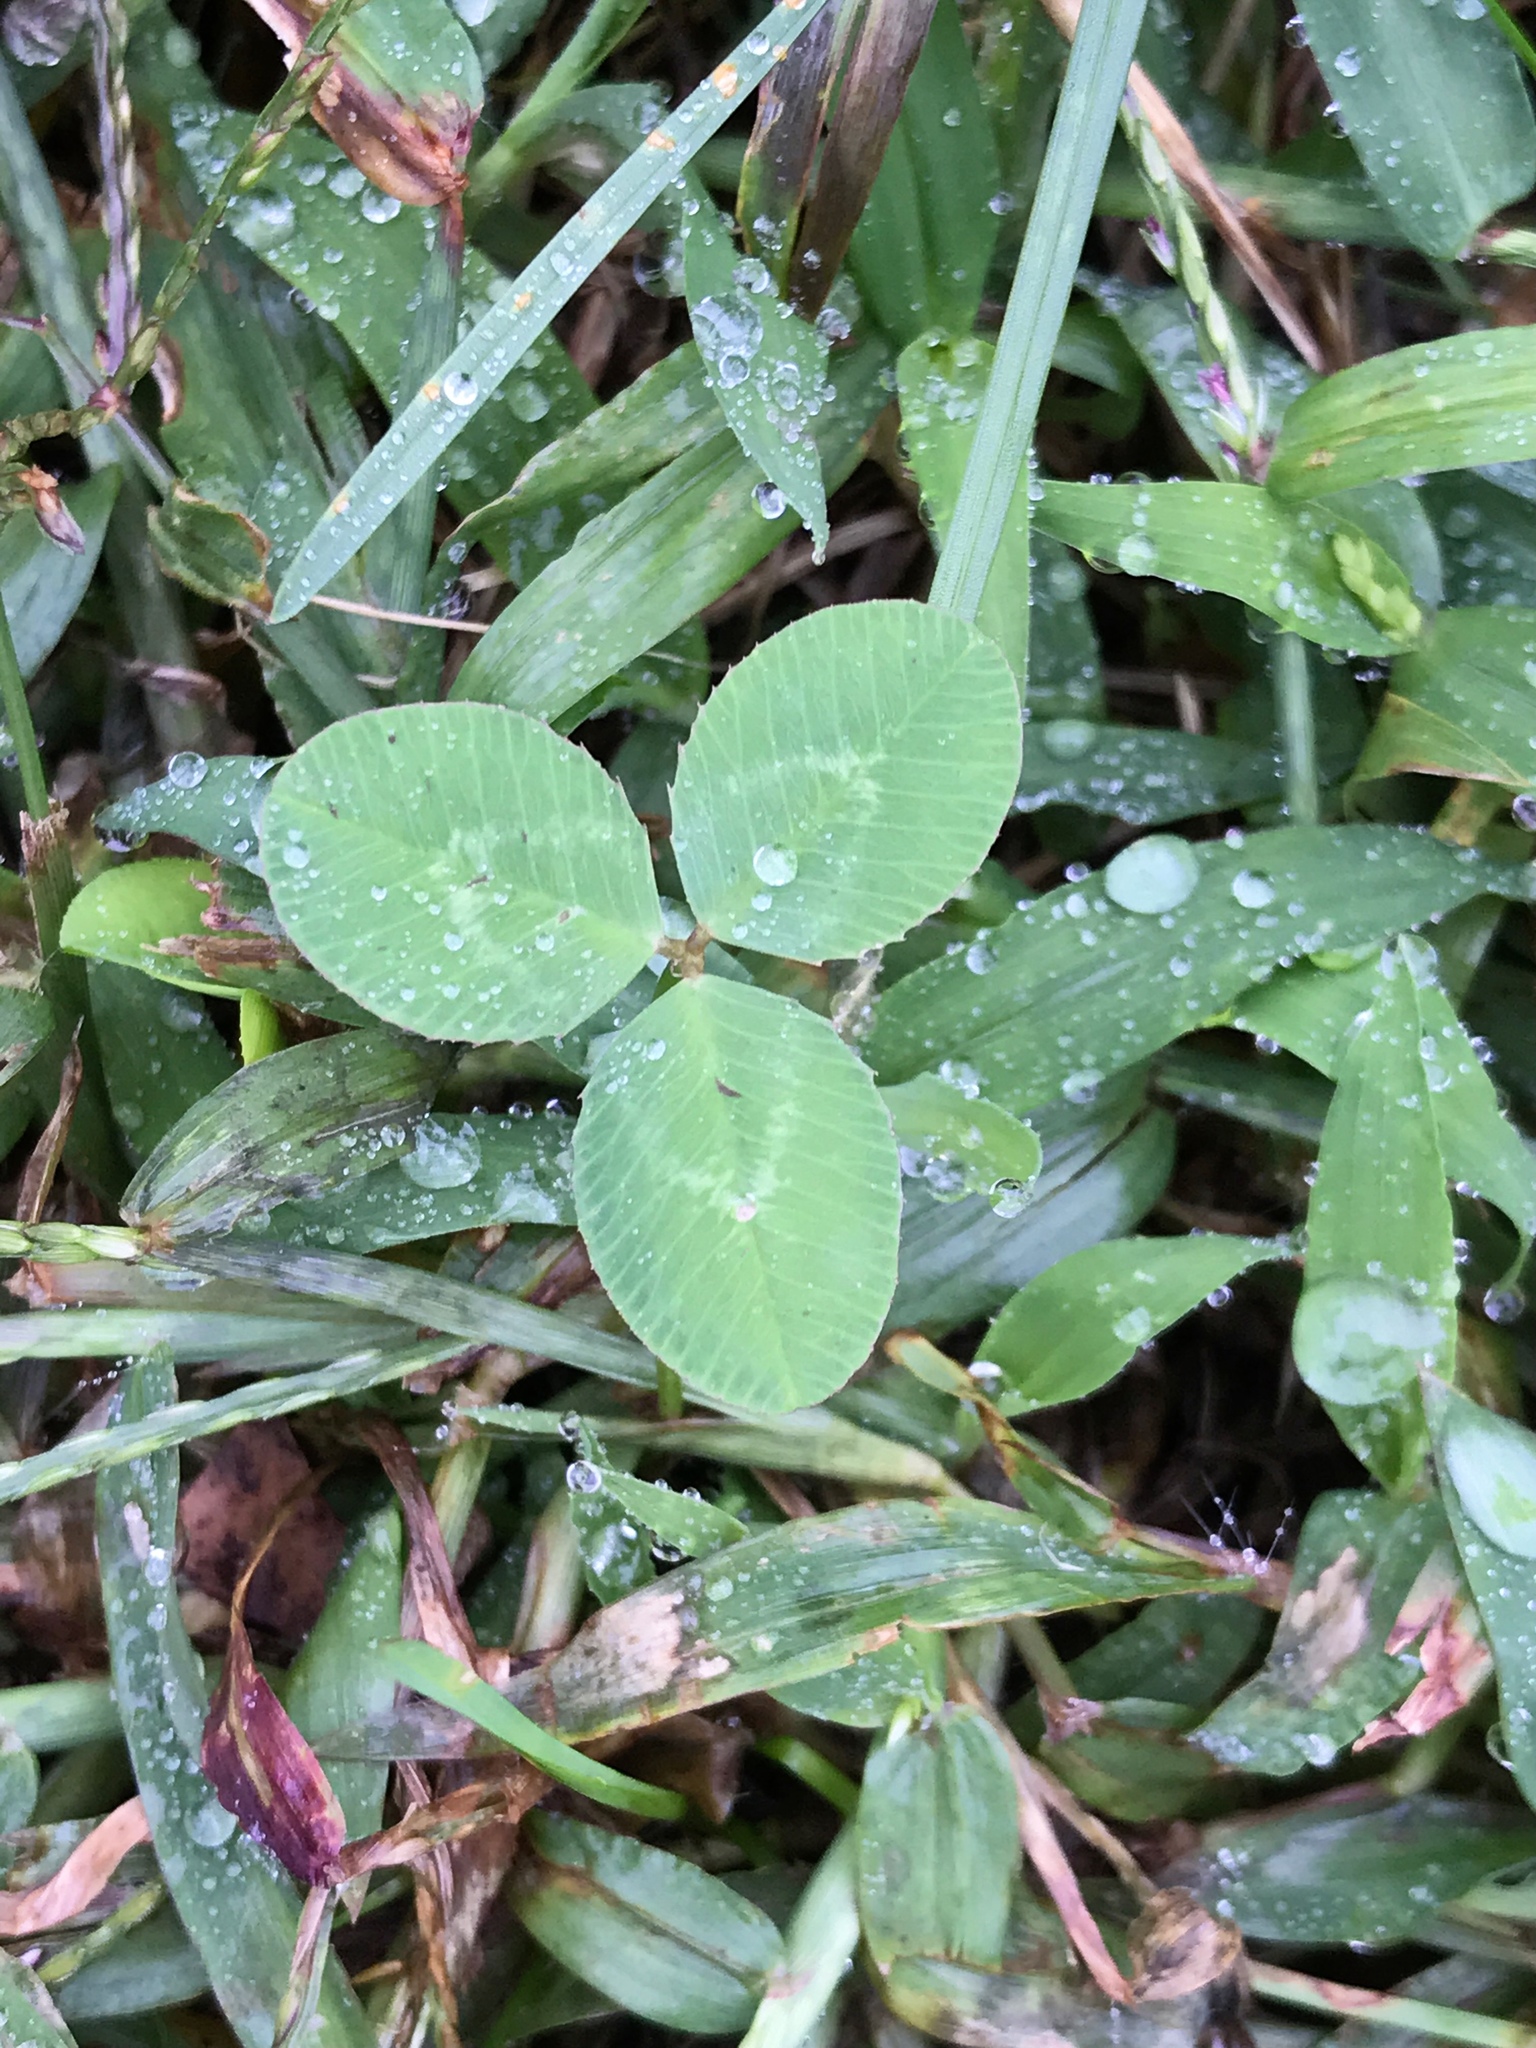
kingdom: Plantae
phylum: Tracheophyta
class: Magnoliopsida
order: Fabales
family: Fabaceae
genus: Trifolium
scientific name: Trifolium repens
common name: White clover
